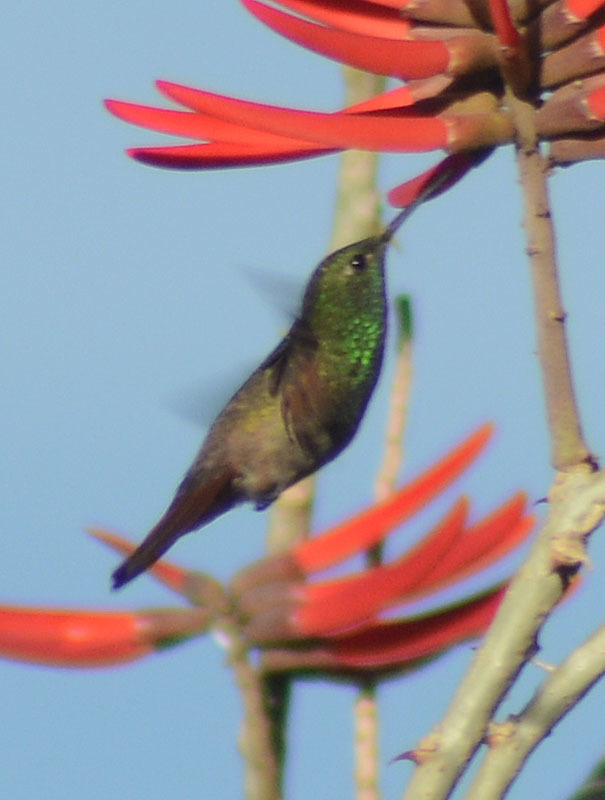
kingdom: Animalia
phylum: Chordata
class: Aves
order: Apodiformes
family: Trochilidae
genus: Saucerottia
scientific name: Saucerottia beryllina
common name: Berylline hummingbird
